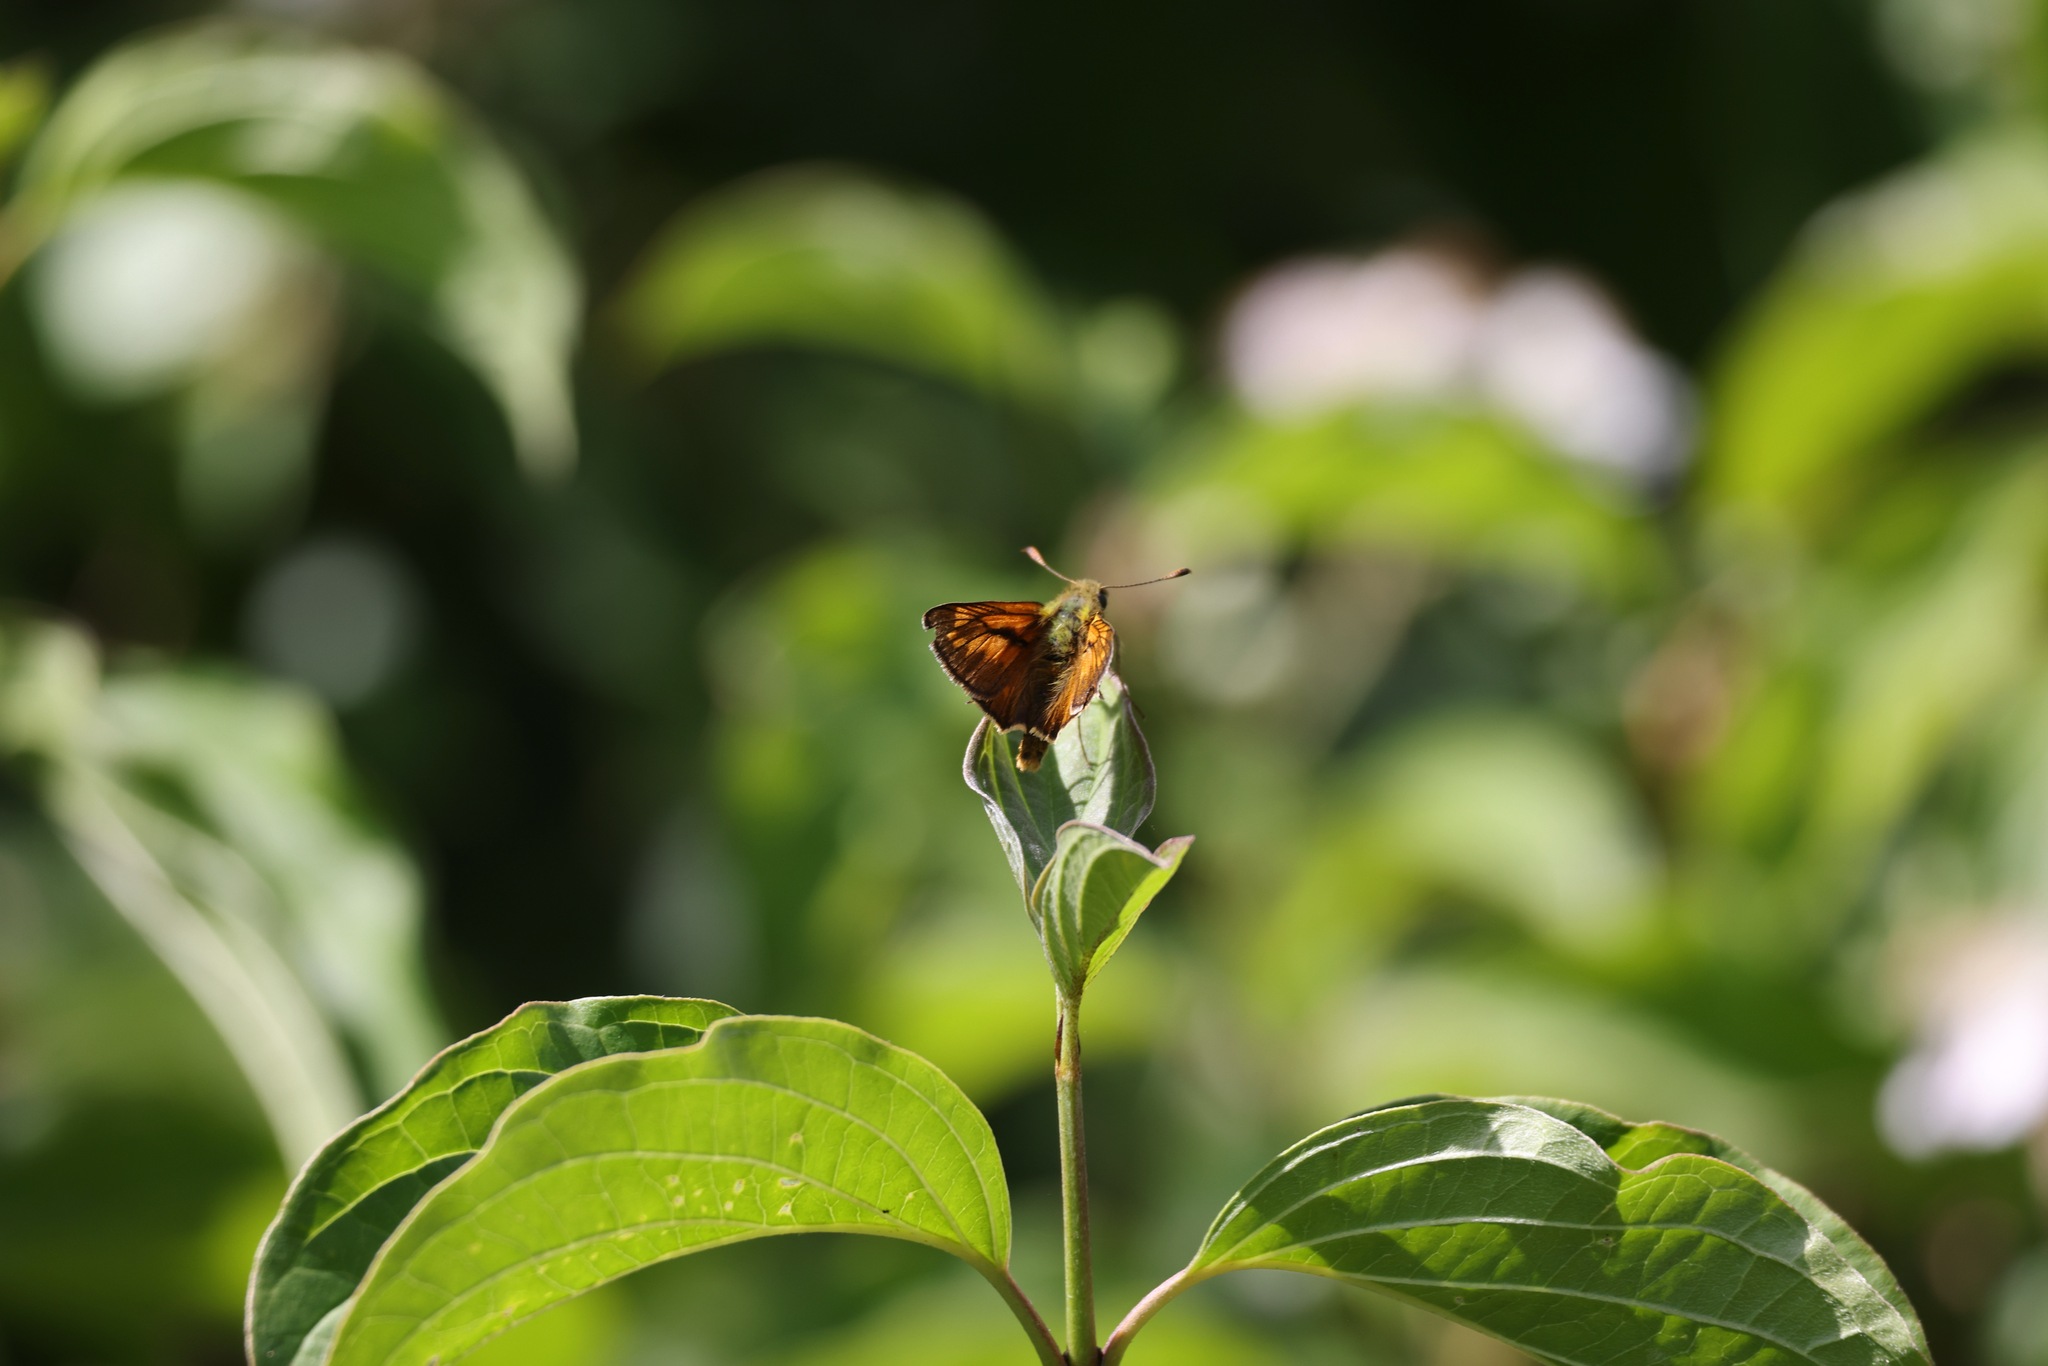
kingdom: Animalia
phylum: Arthropoda
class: Insecta
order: Lepidoptera
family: Hesperiidae
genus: Ochlodes
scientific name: Ochlodes venata
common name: Large skipper
